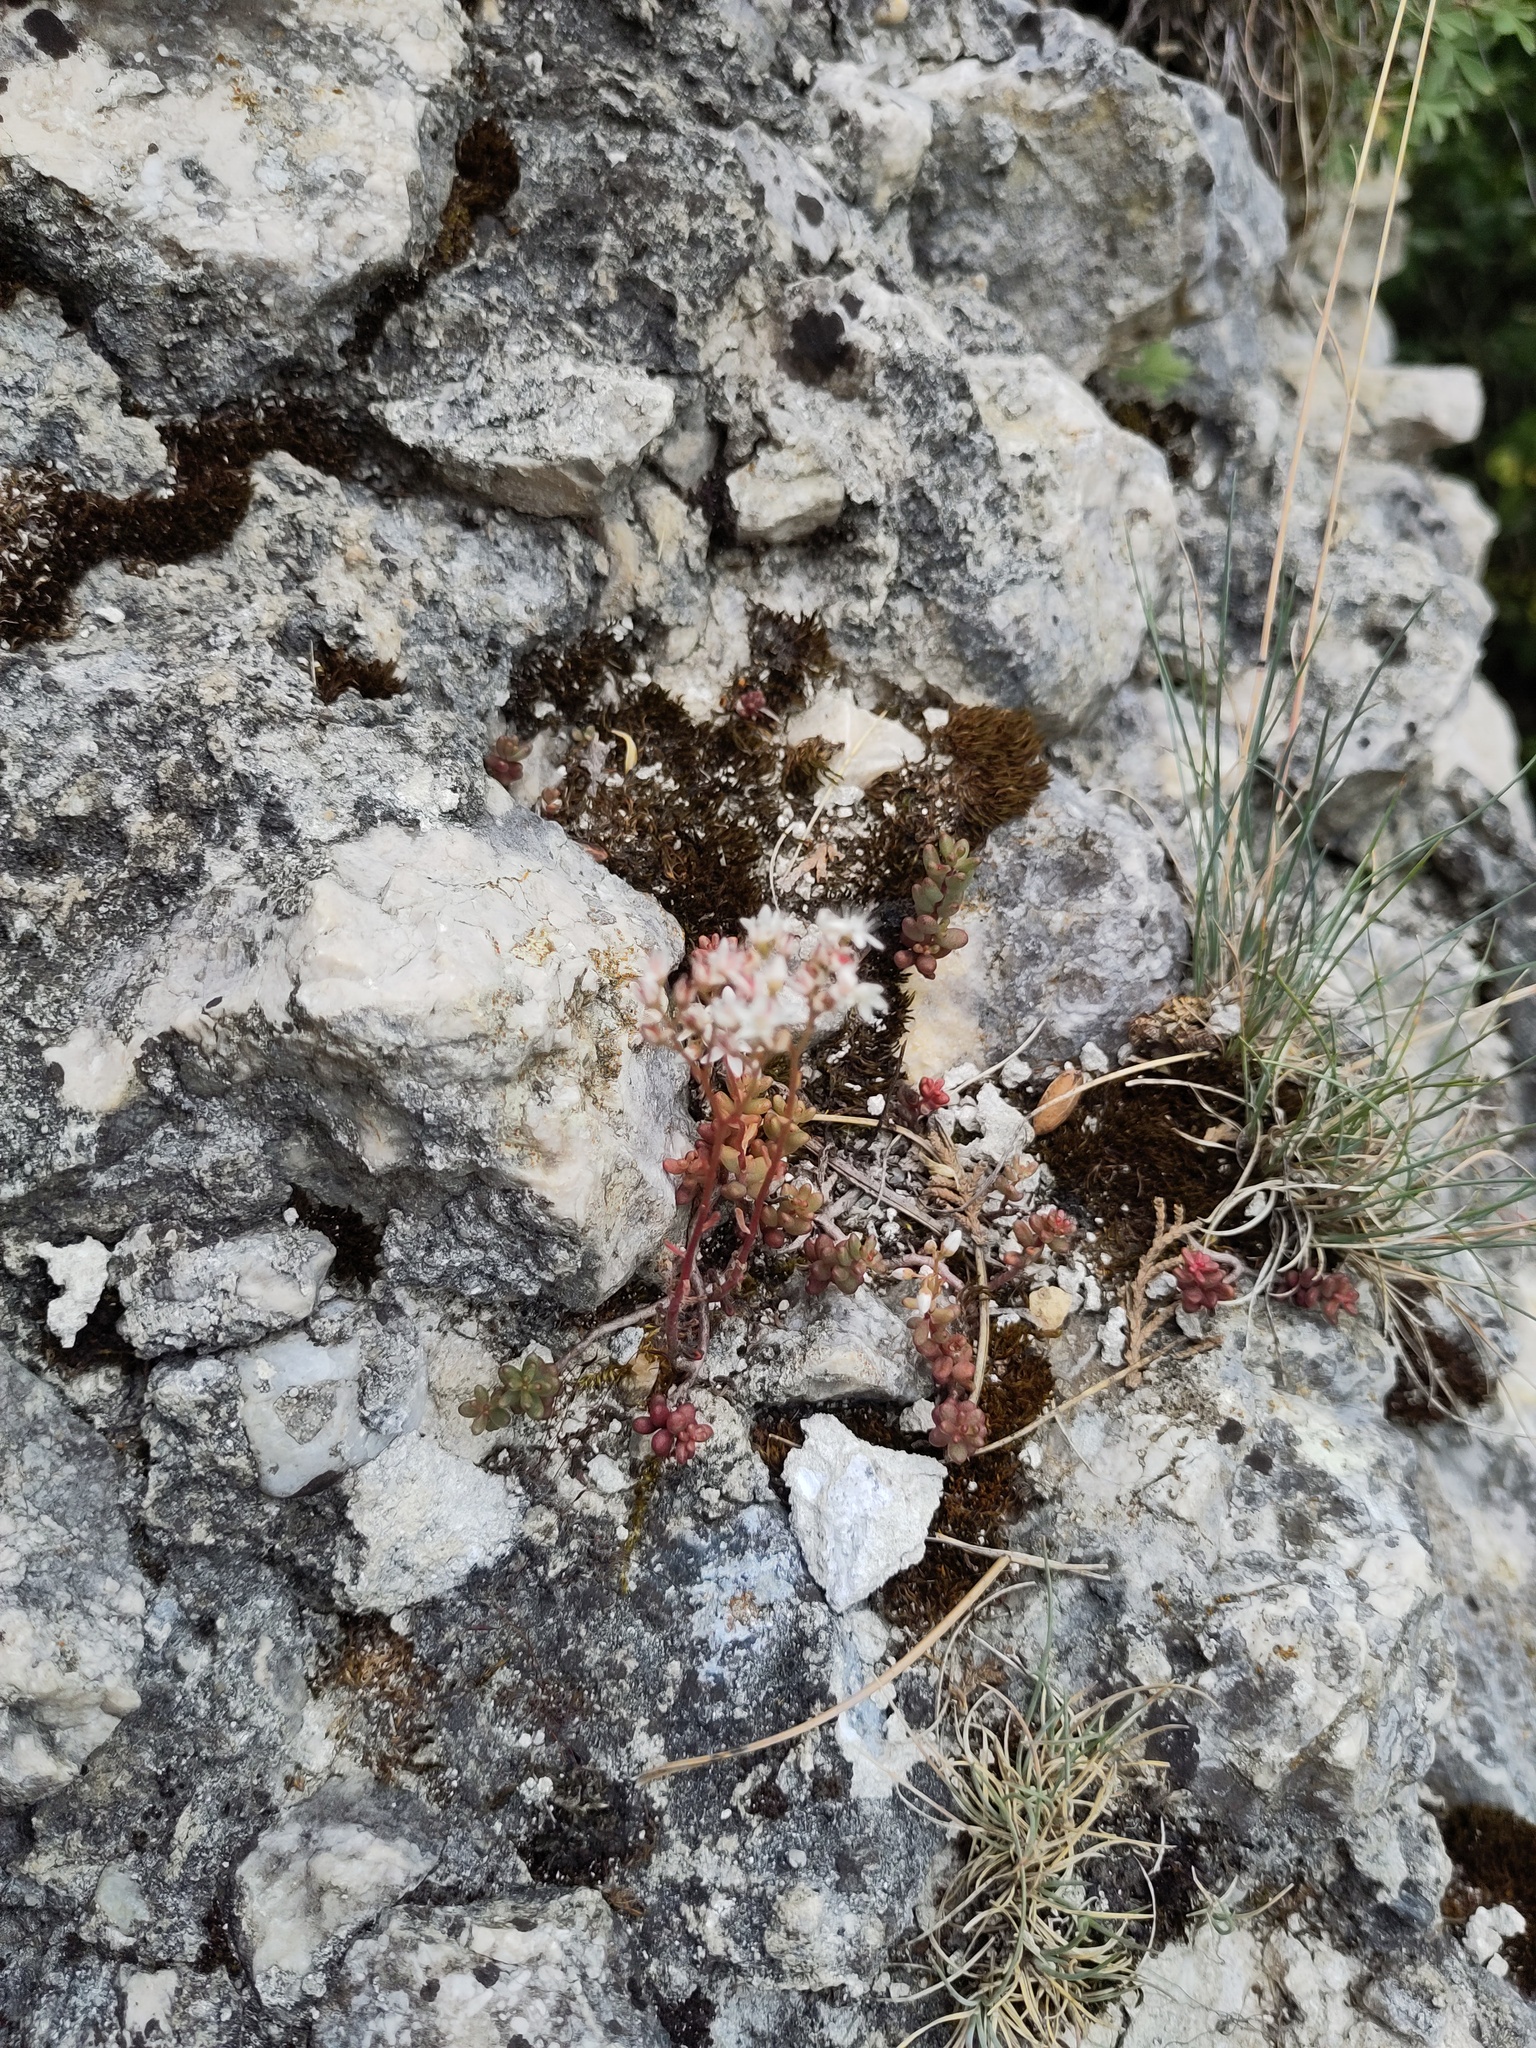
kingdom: Plantae
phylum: Tracheophyta
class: Magnoliopsida
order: Saxifragales
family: Crassulaceae
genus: Sedum
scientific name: Sedum album
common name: White stonecrop
